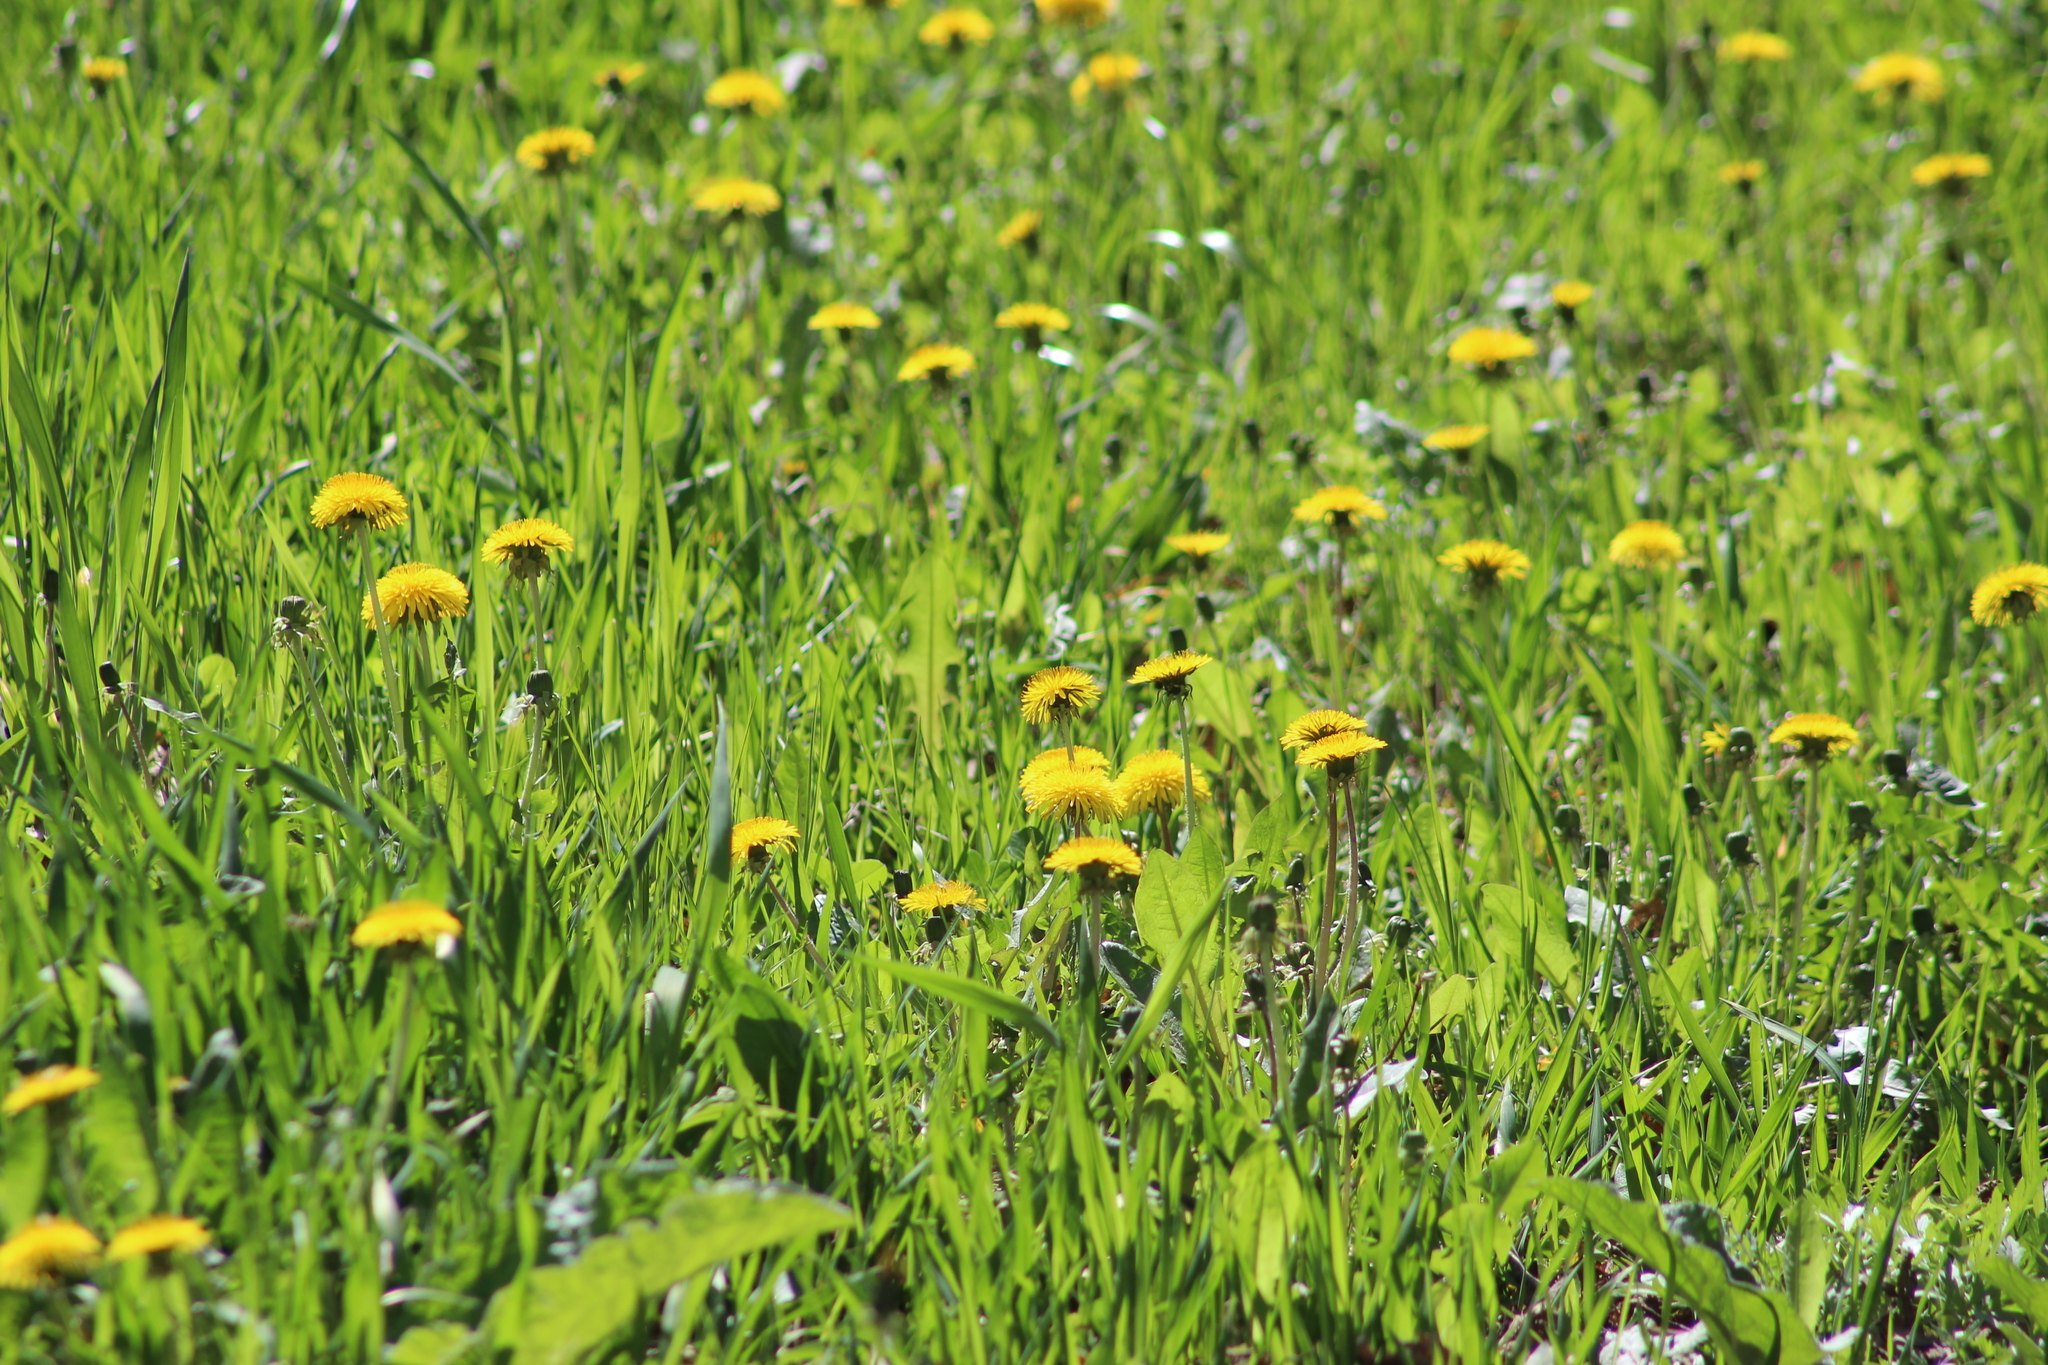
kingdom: Plantae
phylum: Tracheophyta
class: Magnoliopsida
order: Asterales
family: Asteraceae
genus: Taraxacum
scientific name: Taraxacum officinale
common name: Common dandelion
